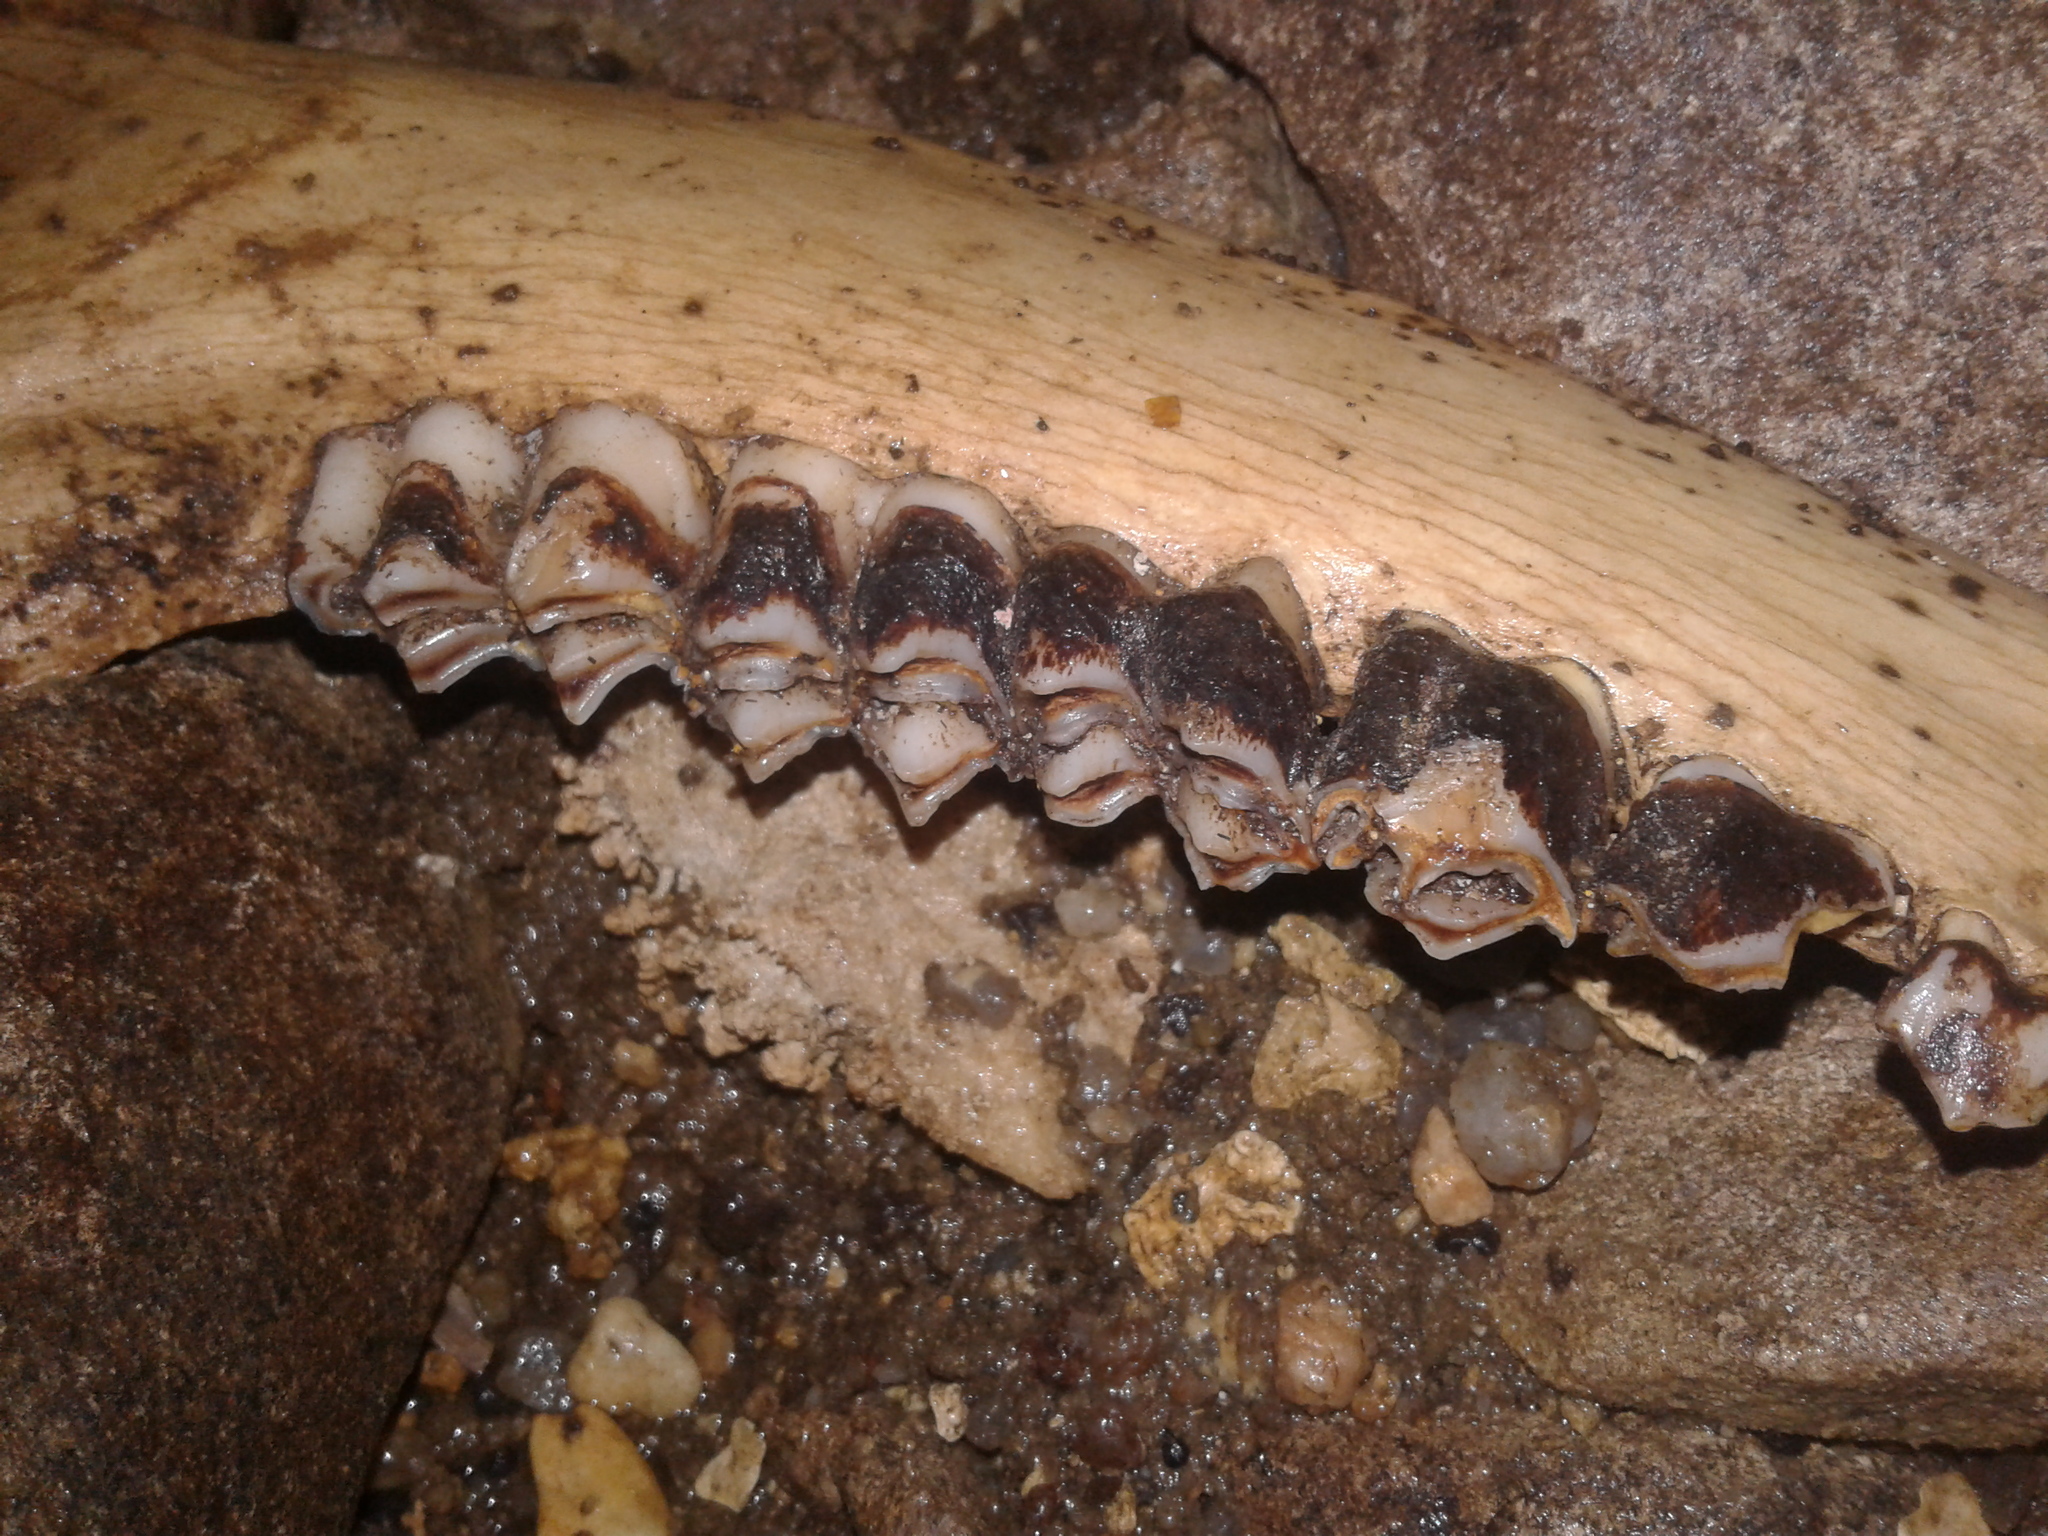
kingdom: Animalia
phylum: Chordata
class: Mammalia
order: Artiodactyla
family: Cervidae
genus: Cervus
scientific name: Cervus elaphus
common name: Red deer
